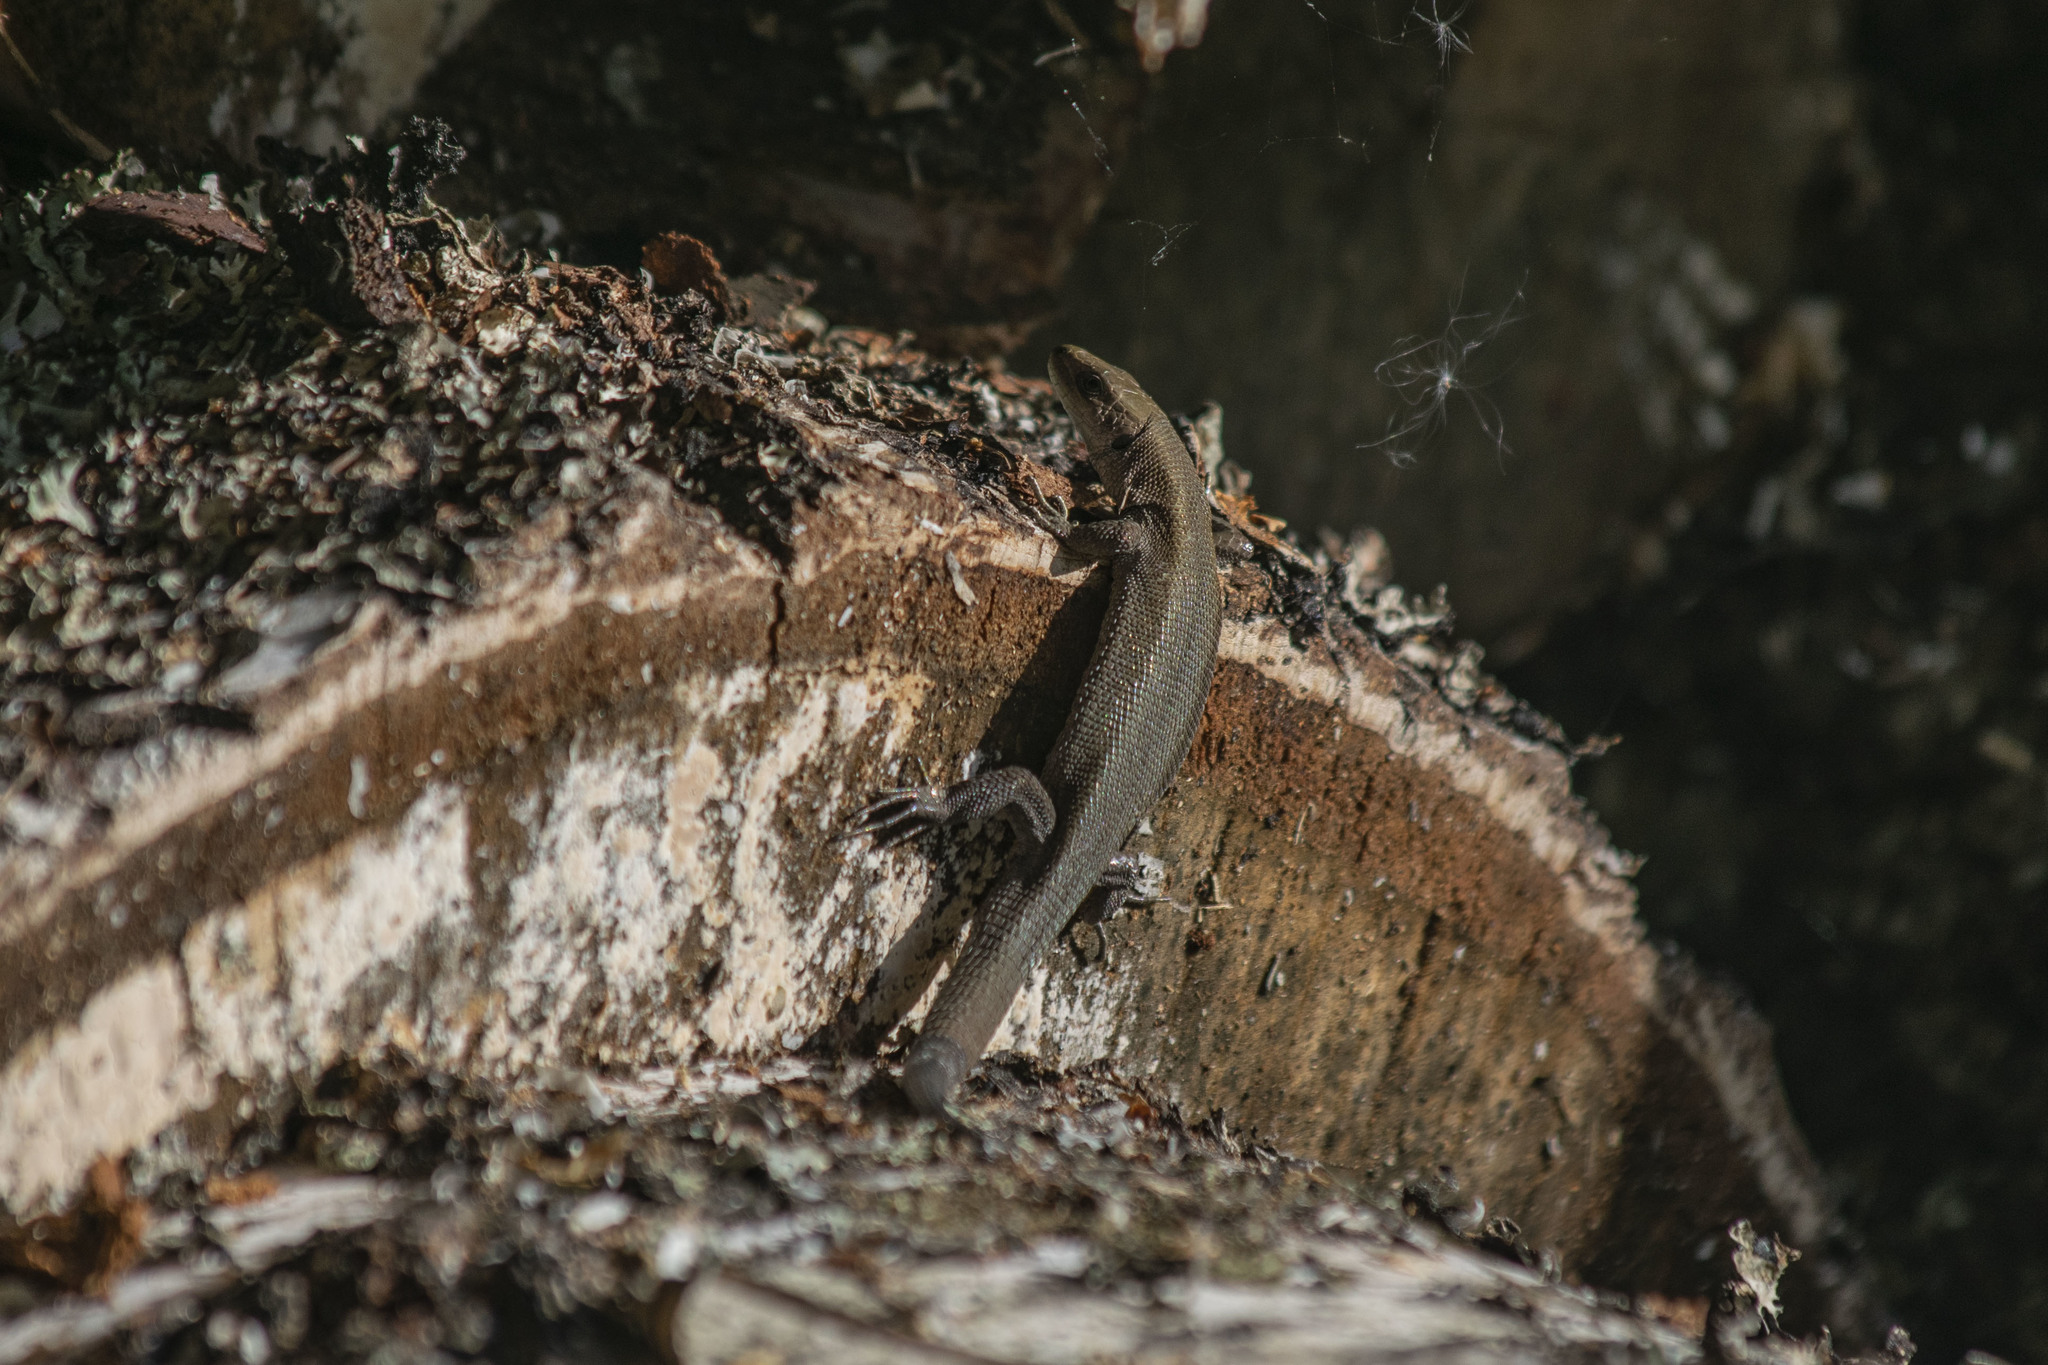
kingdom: Animalia
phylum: Chordata
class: Squamata
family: Lacertidae
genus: Zootoca
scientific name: Zootoca vivipara
